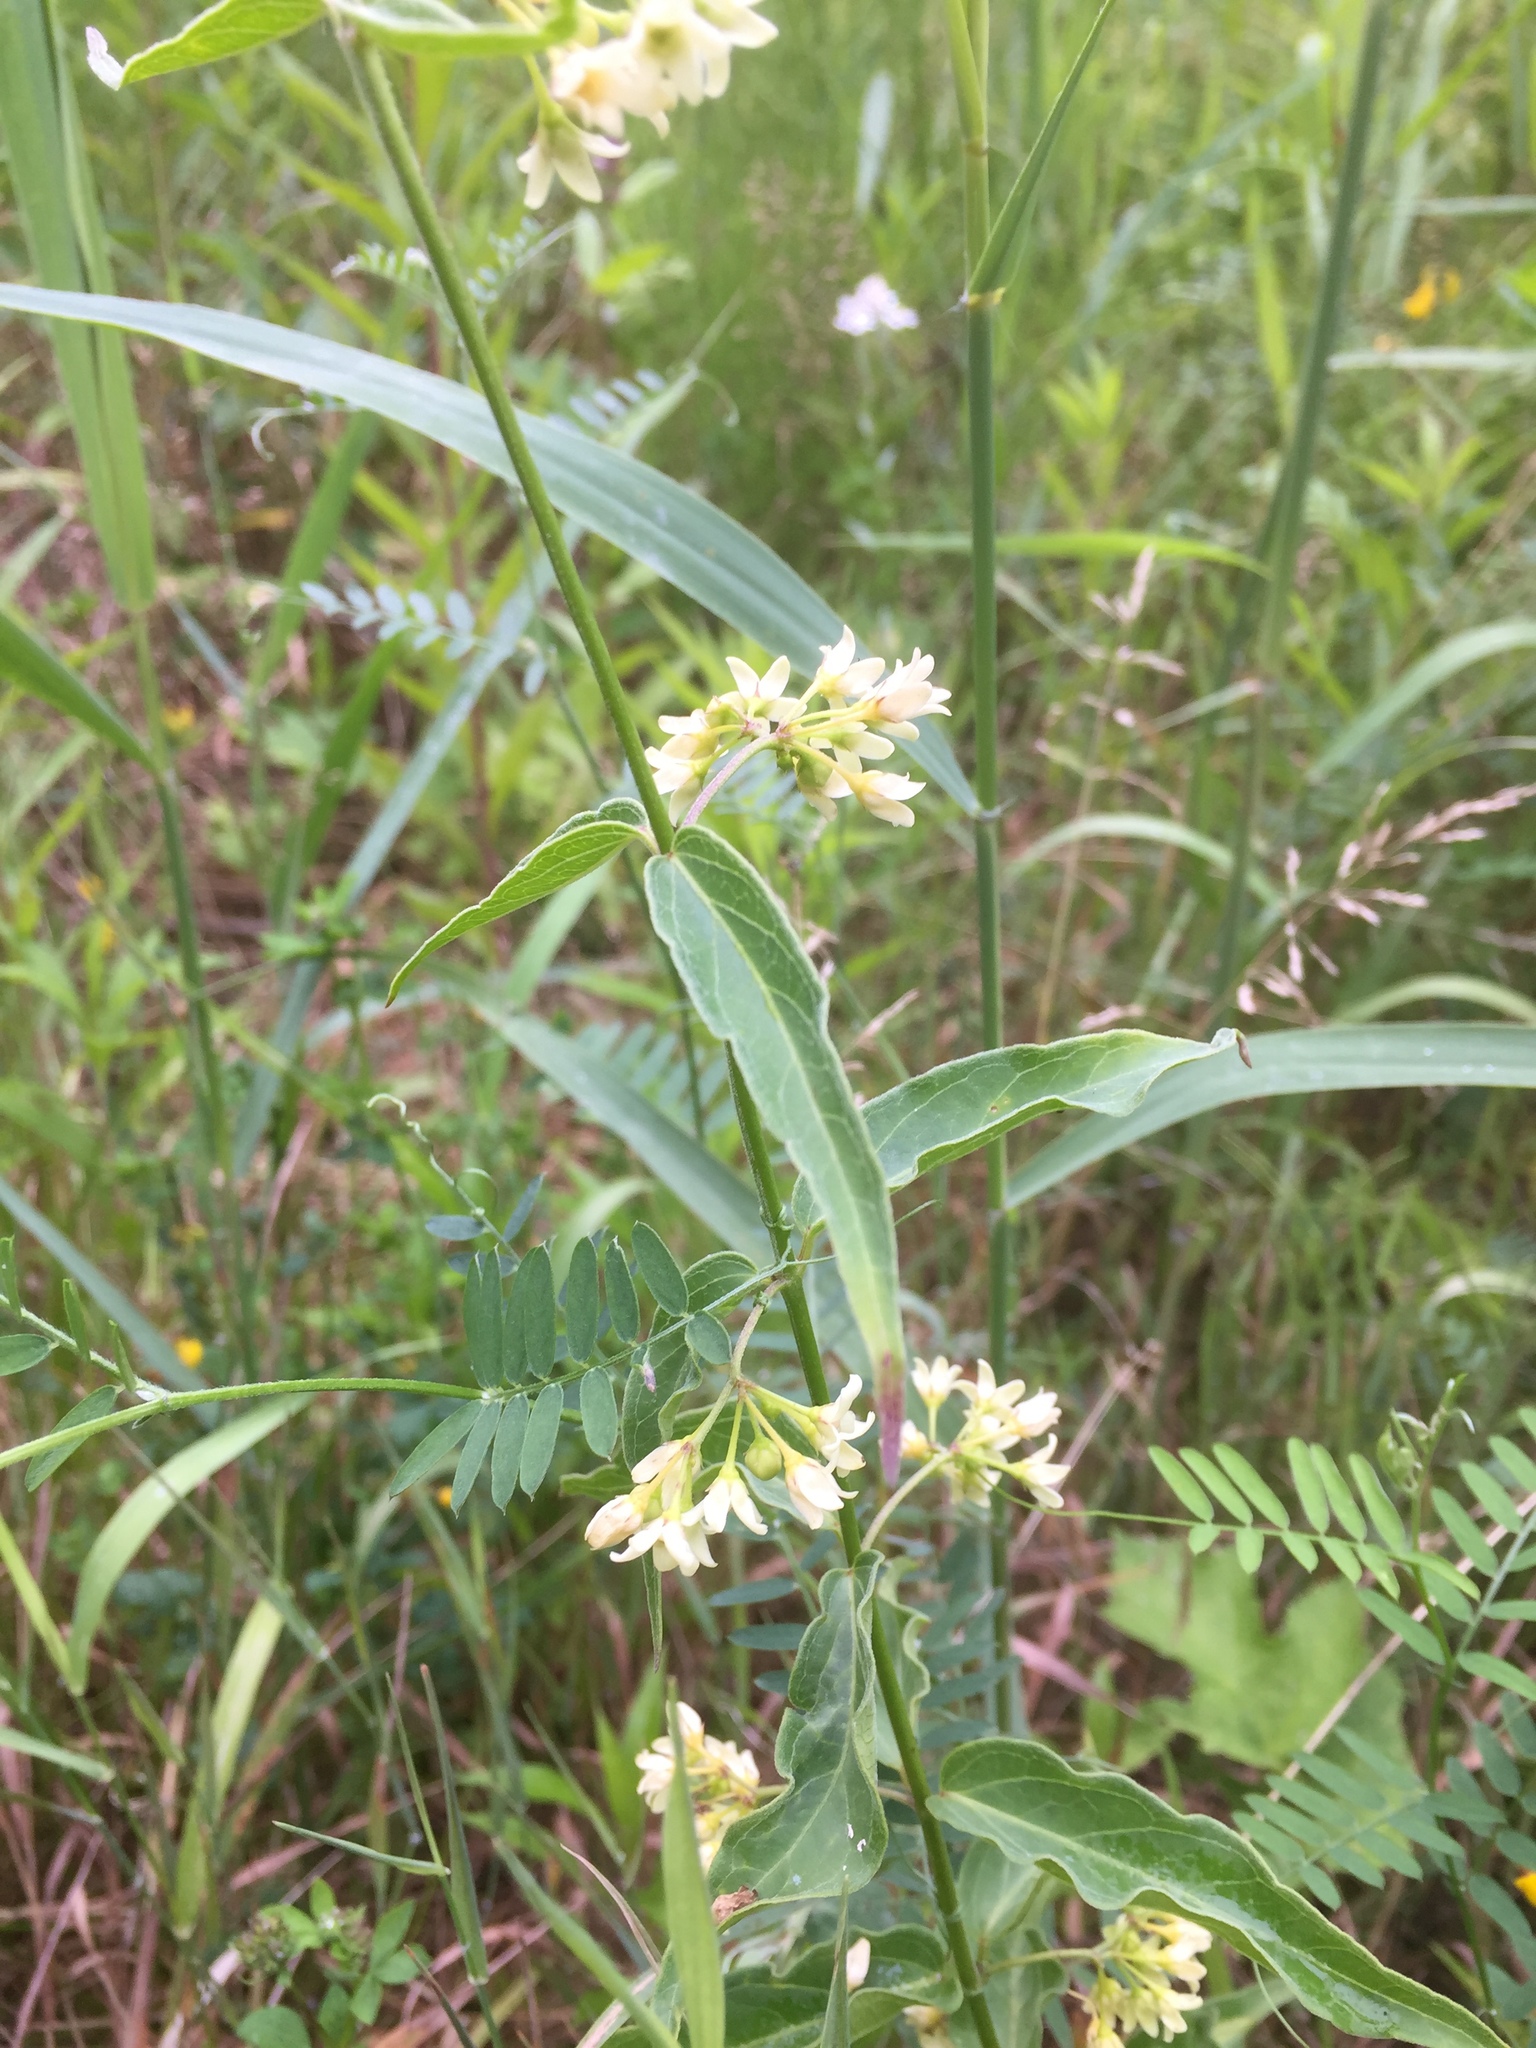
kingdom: Plantae
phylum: Tracheophyta
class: Magnoliopsida
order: Gentianales
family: Apocynaceae
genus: Vincetoxicum
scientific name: Vincetoxicum hirundinaria
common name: White swallowwort
